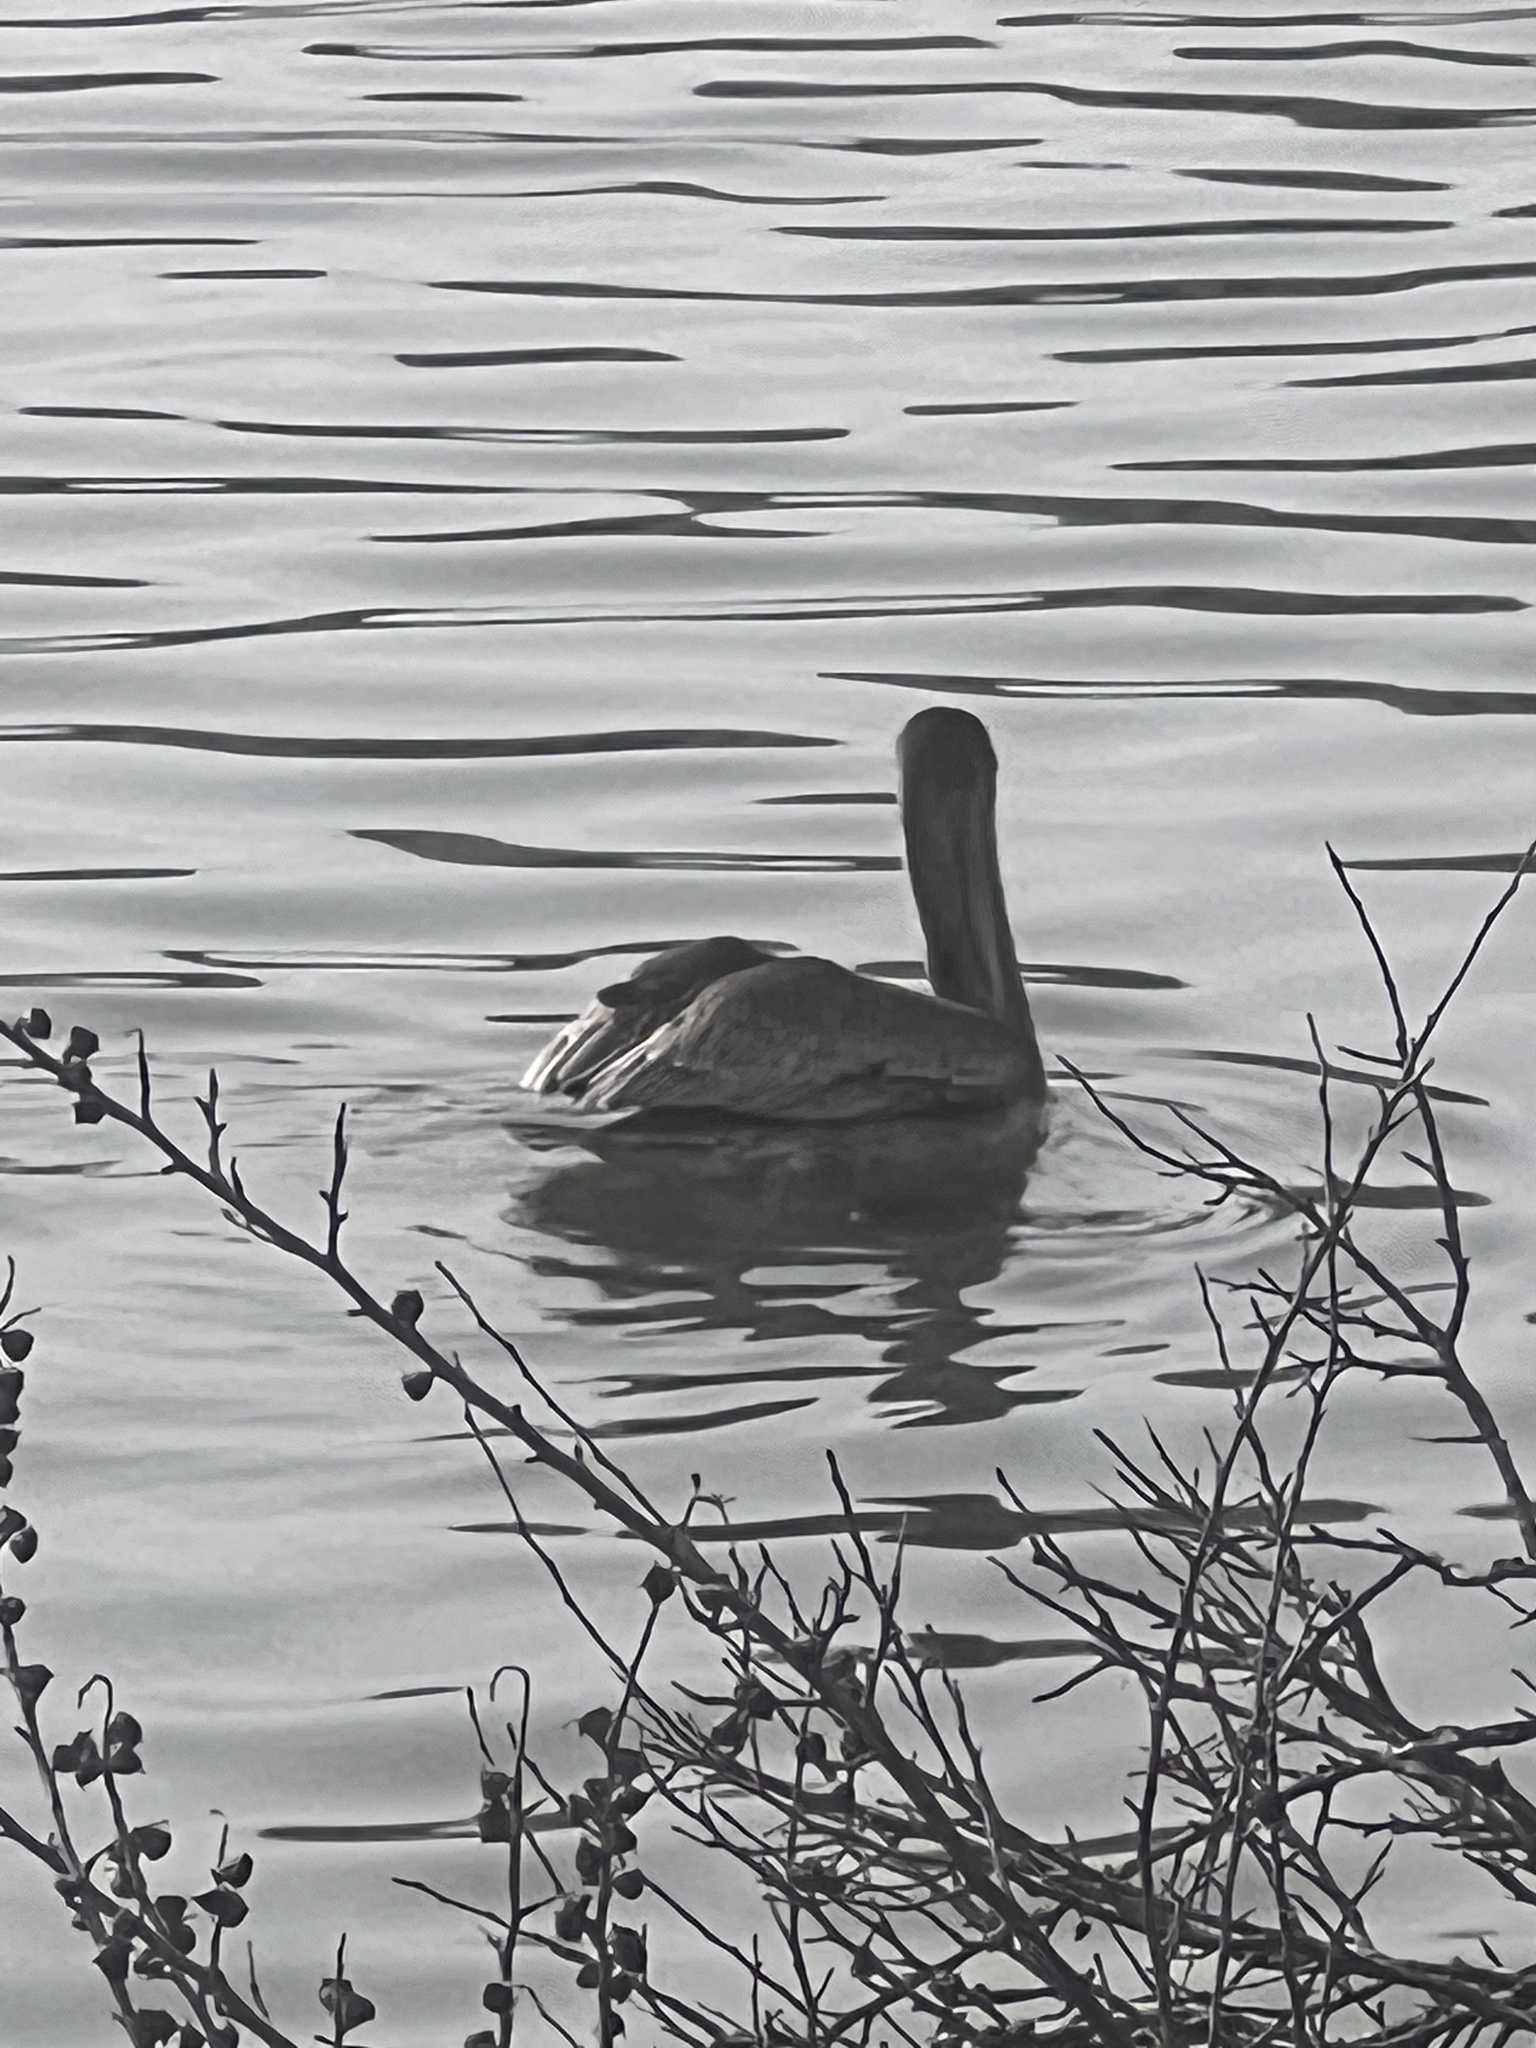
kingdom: Animalia
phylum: Chordata
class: Aves
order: Pelecaniformes
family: Pelecanidae
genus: Pelecanus
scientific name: Pelecanus occidentalis
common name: Brown pelican
